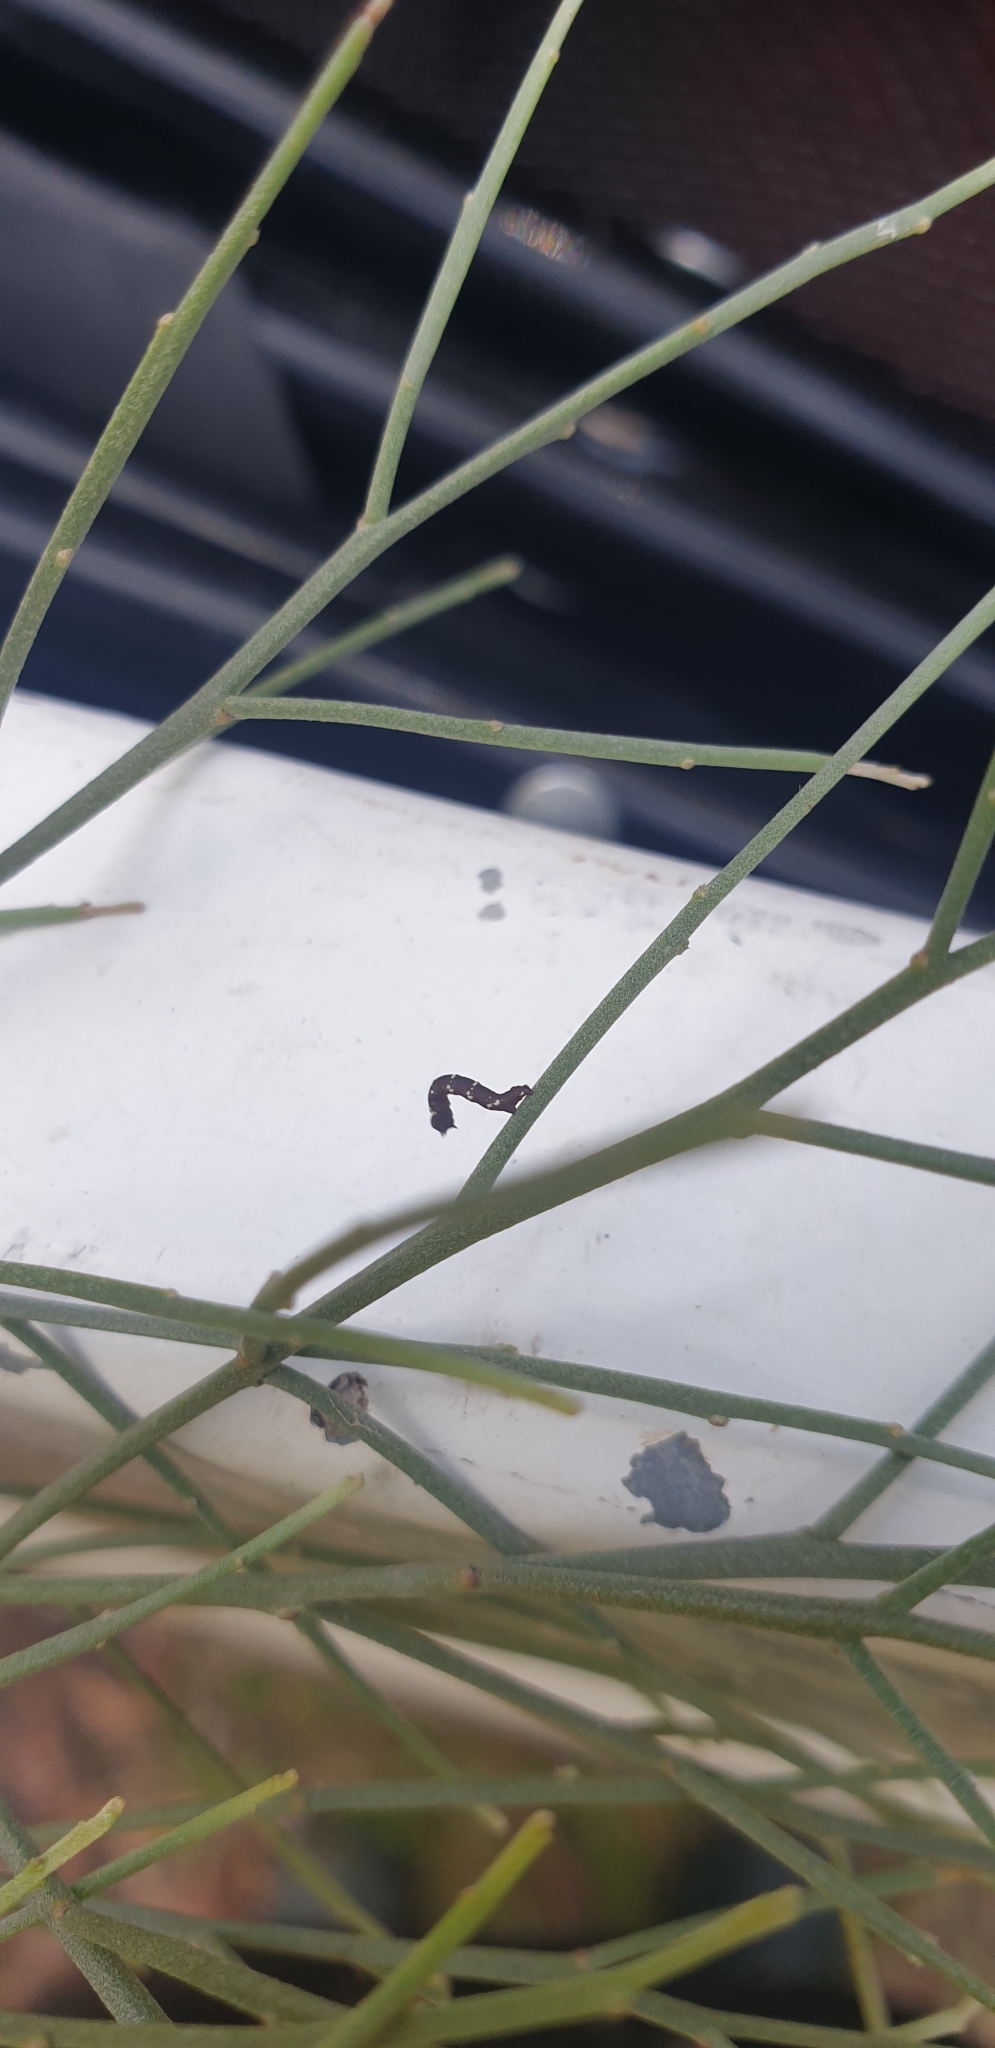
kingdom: Animalia
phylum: Arthropoda
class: Insecta
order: Lepidoptera
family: Geometridae
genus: Pholodes
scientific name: Pholodes sinistraria
